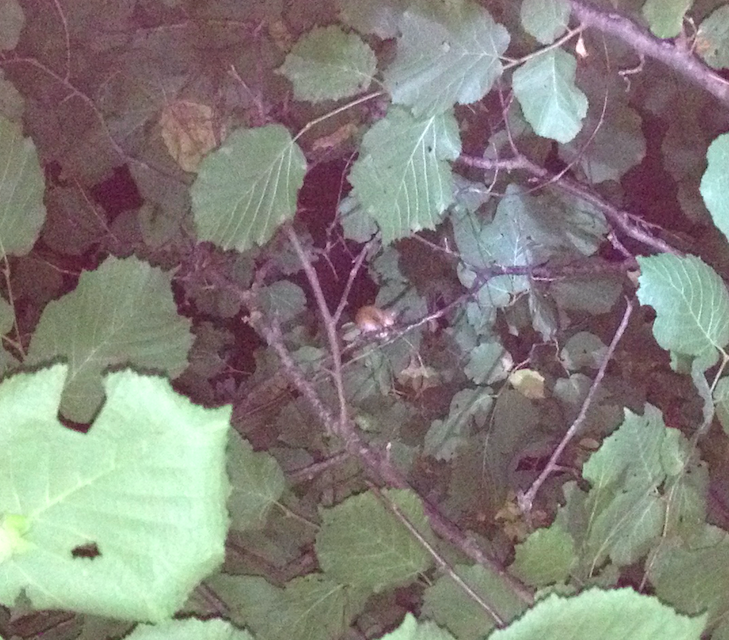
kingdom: Animalia
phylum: Chordata
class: Mammalia
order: Rodentia
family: Gliridae
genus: Muscardinus
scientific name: Muscardinus avellanarius
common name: Hazel dormouse
